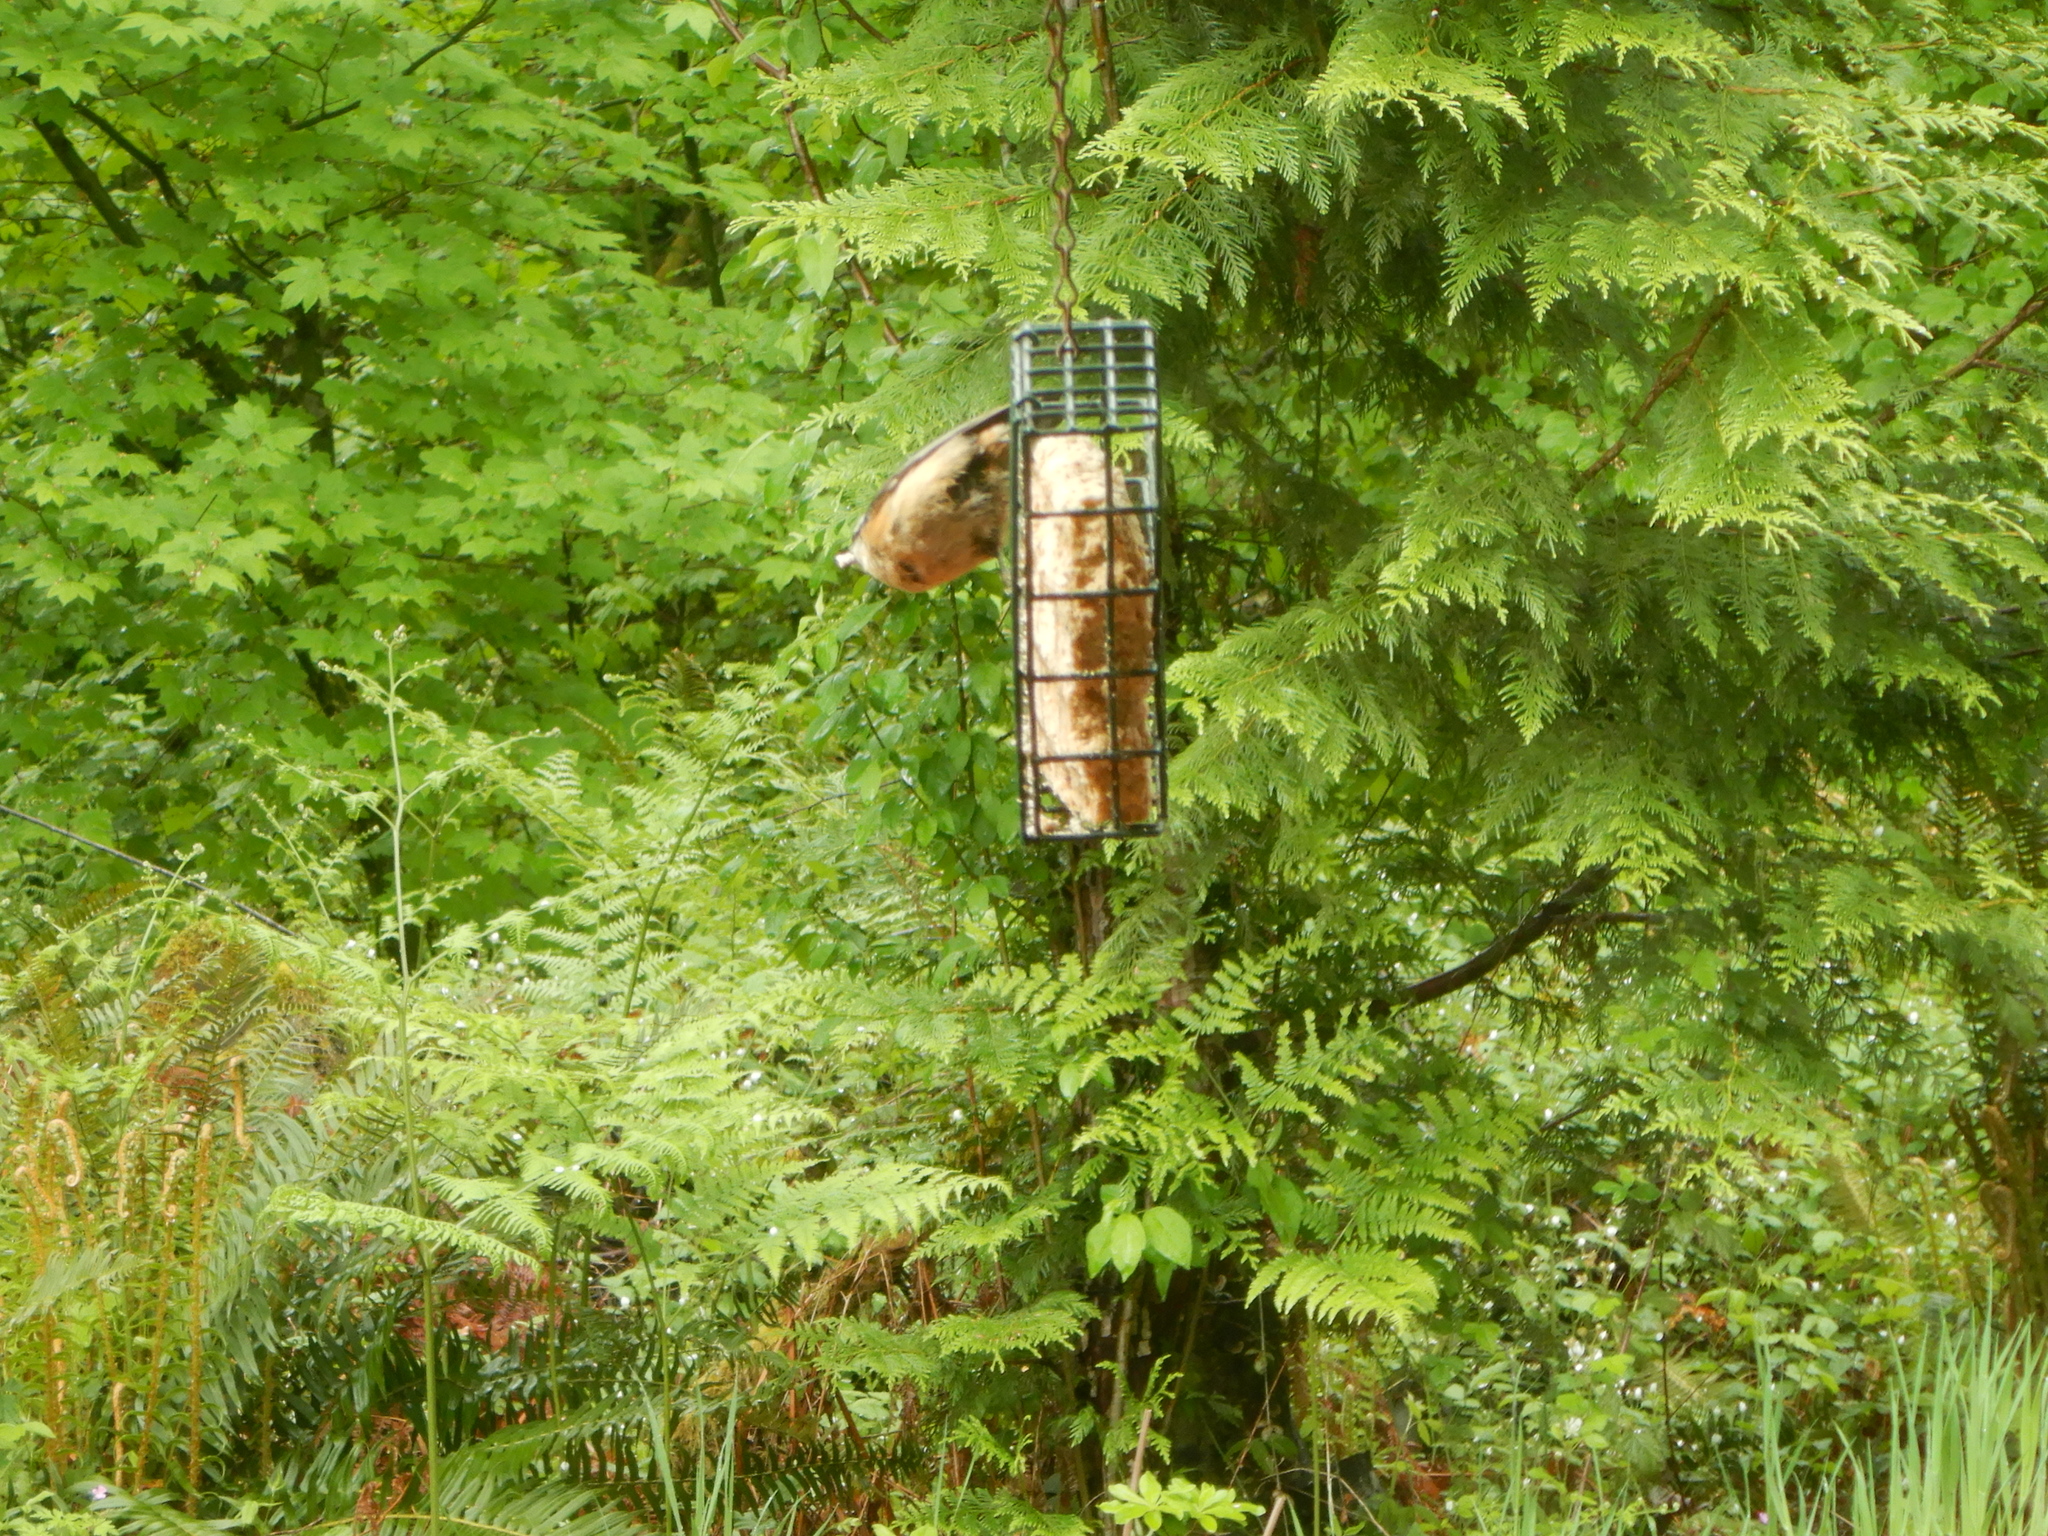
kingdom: Animalia
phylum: Chordata
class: Aves
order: Passeriformes
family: Sittidae
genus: Sitta
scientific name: Sitta canadensis
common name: Red-breasted nuthatch
